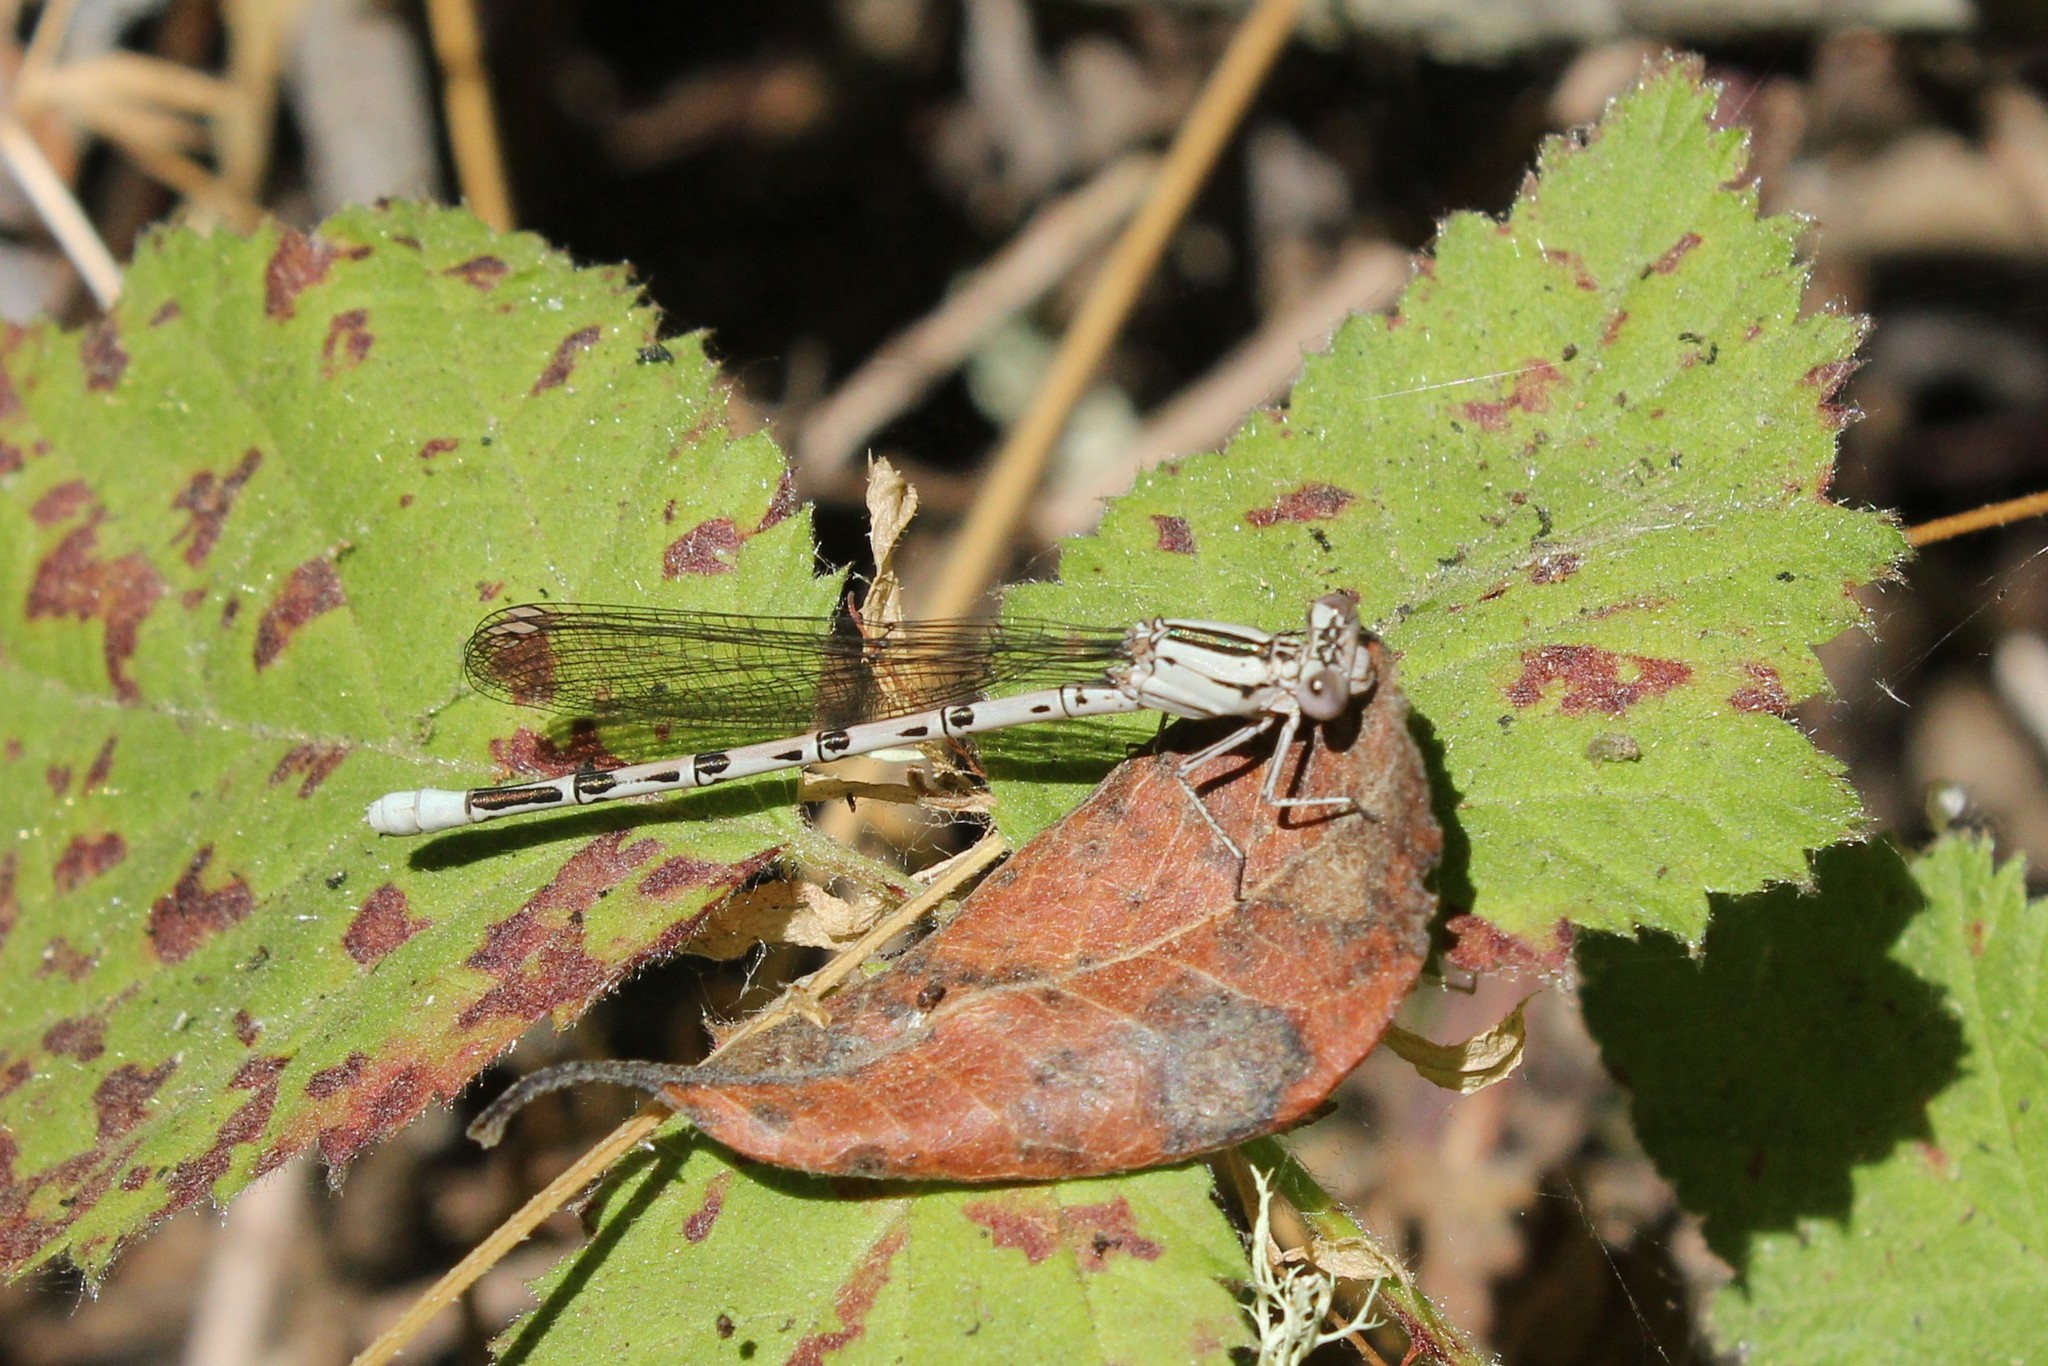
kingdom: Animalia
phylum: Arthropoda
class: Insecta
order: Odonata
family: Coenagrionidae
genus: Argia
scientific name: Argia vivida
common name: Vivid dancer
